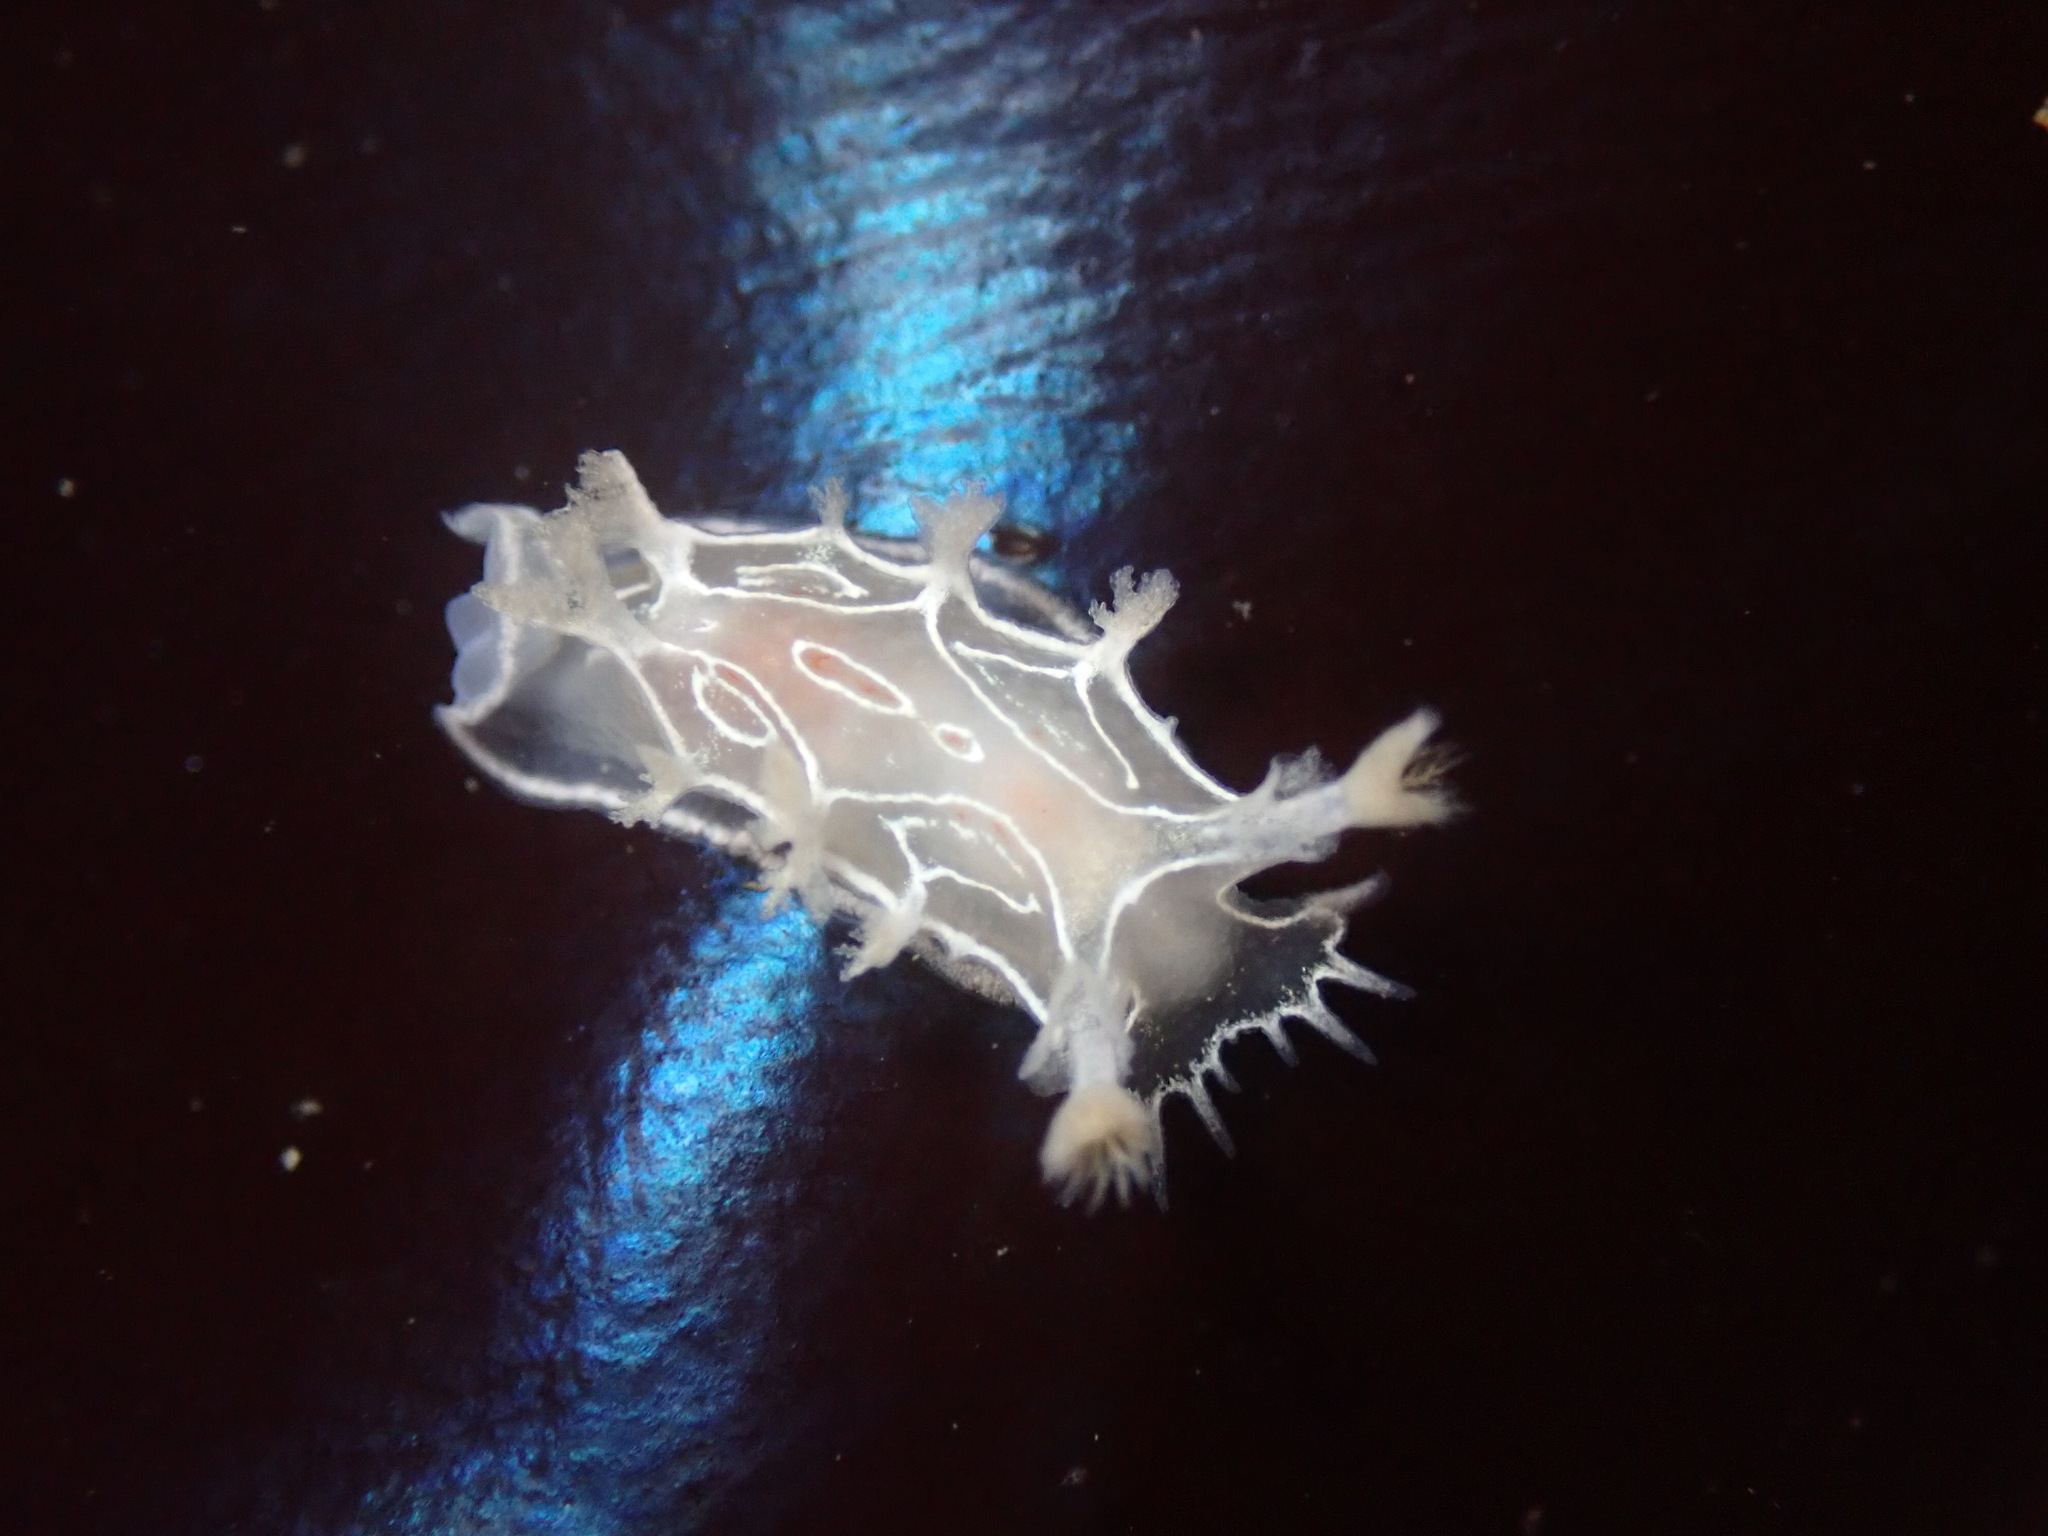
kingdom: Animalia
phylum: Mollusca
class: Gastropoda
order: Nudibranchia
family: Tritoniidae
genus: Tritonia
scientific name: Tritonia festiva
